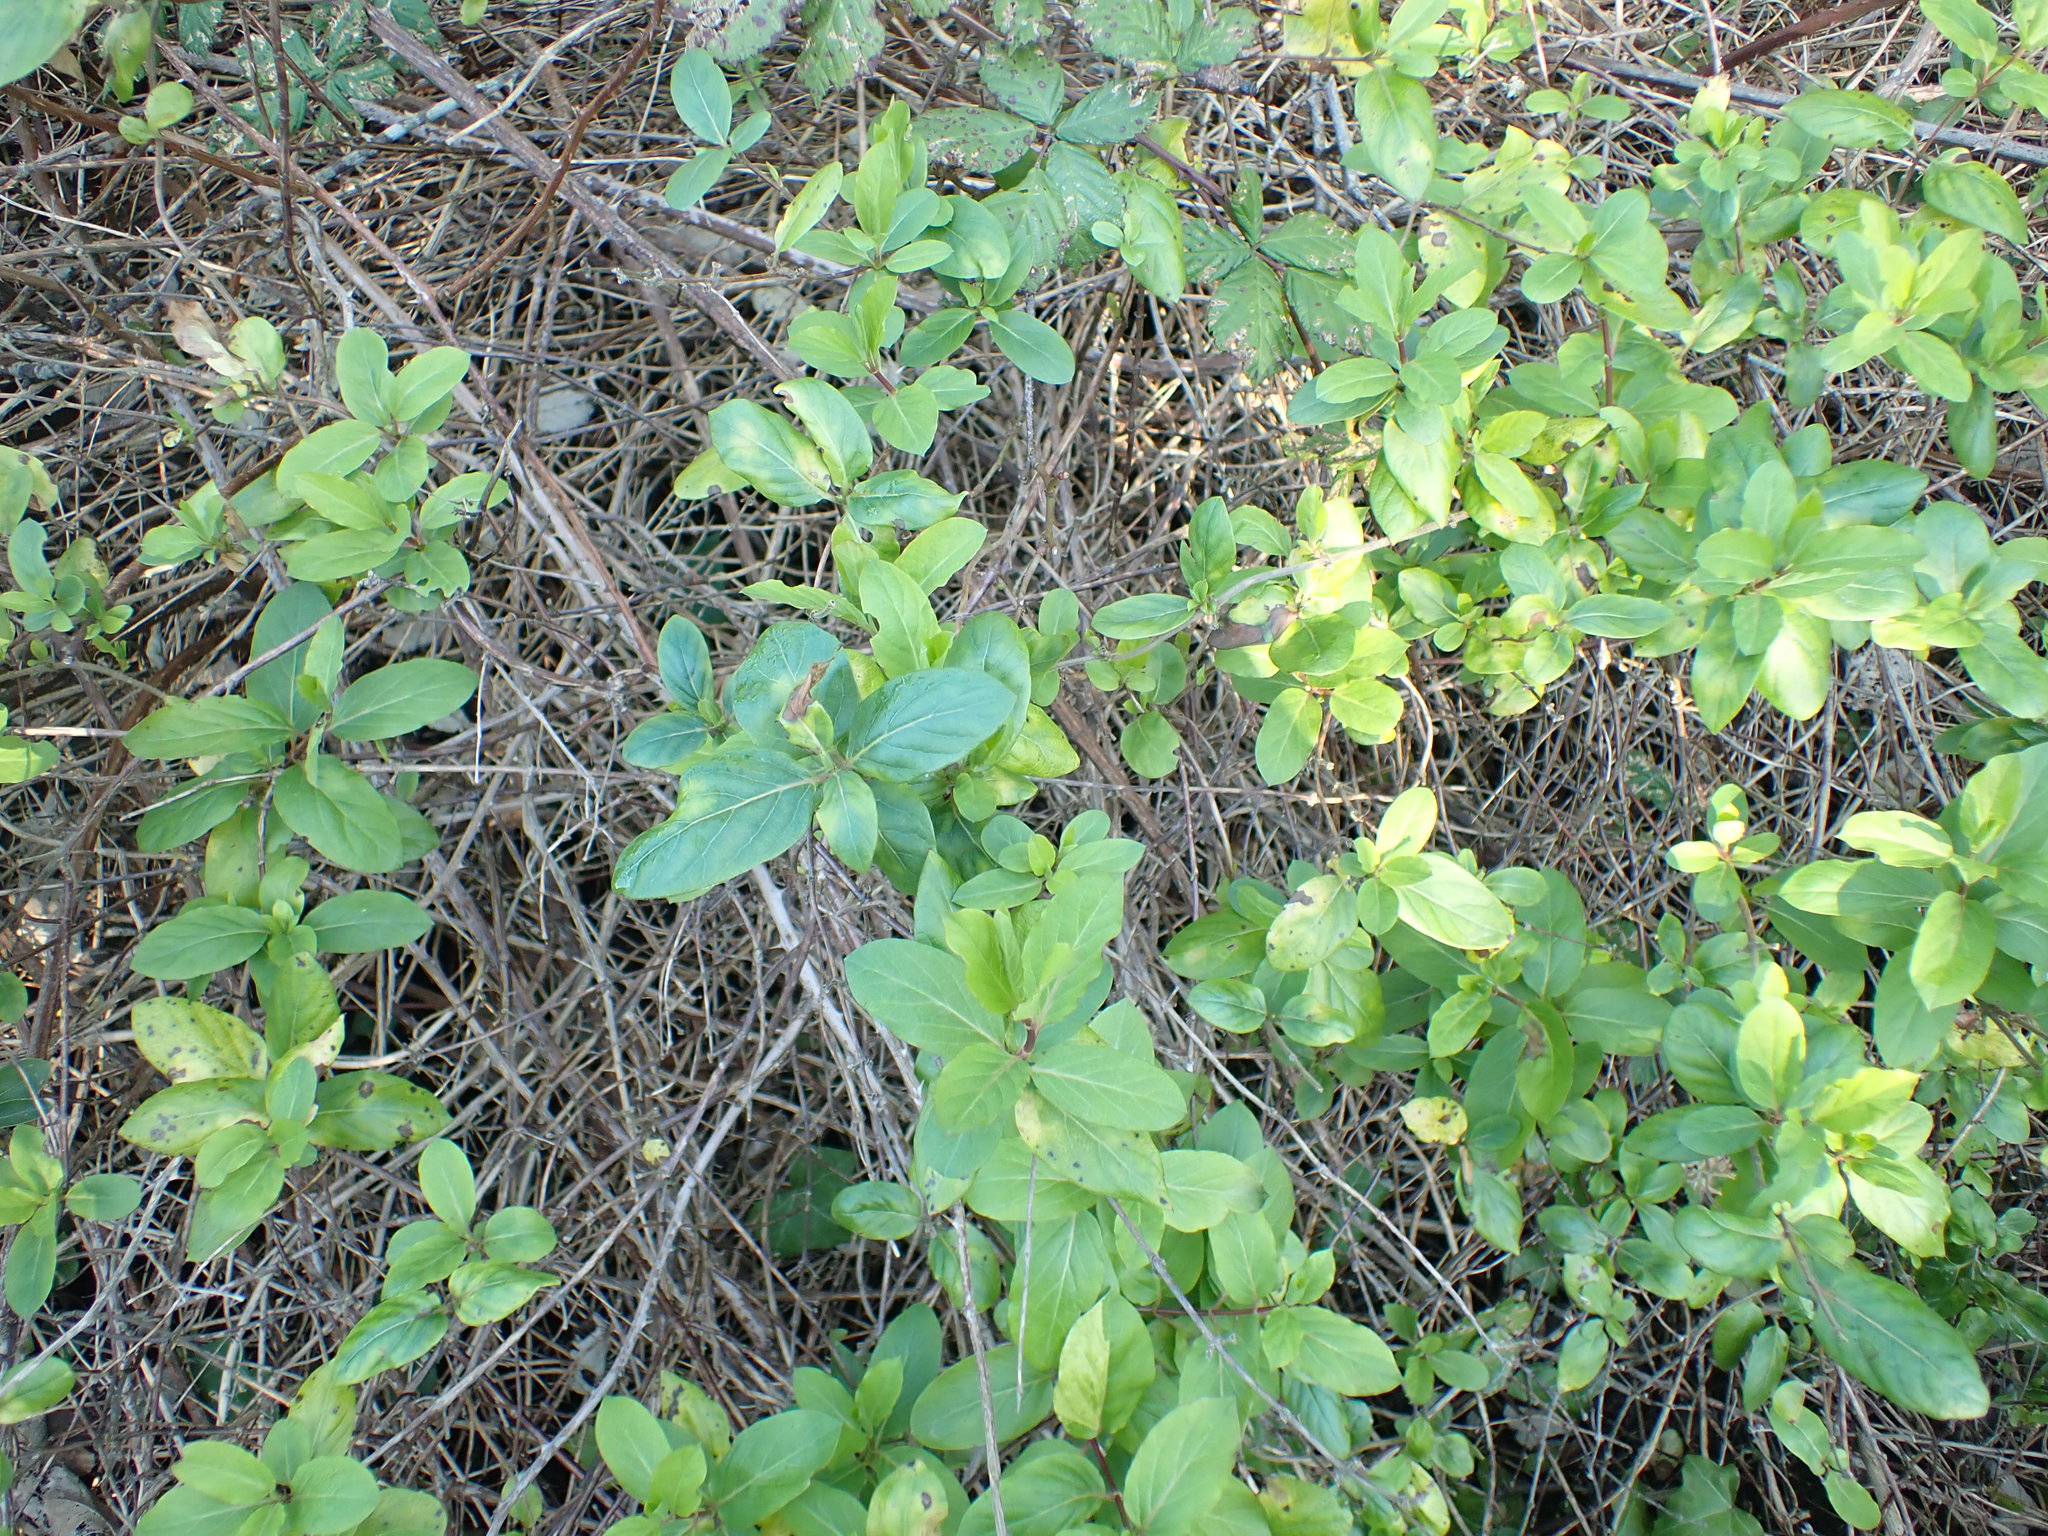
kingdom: Plantae
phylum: Tracheophyta
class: Magnoliopsida
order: Dipsacales
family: Caprifoliaceae
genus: Lonicera
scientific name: Lonicera japonica
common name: Japanese honeysuckle
